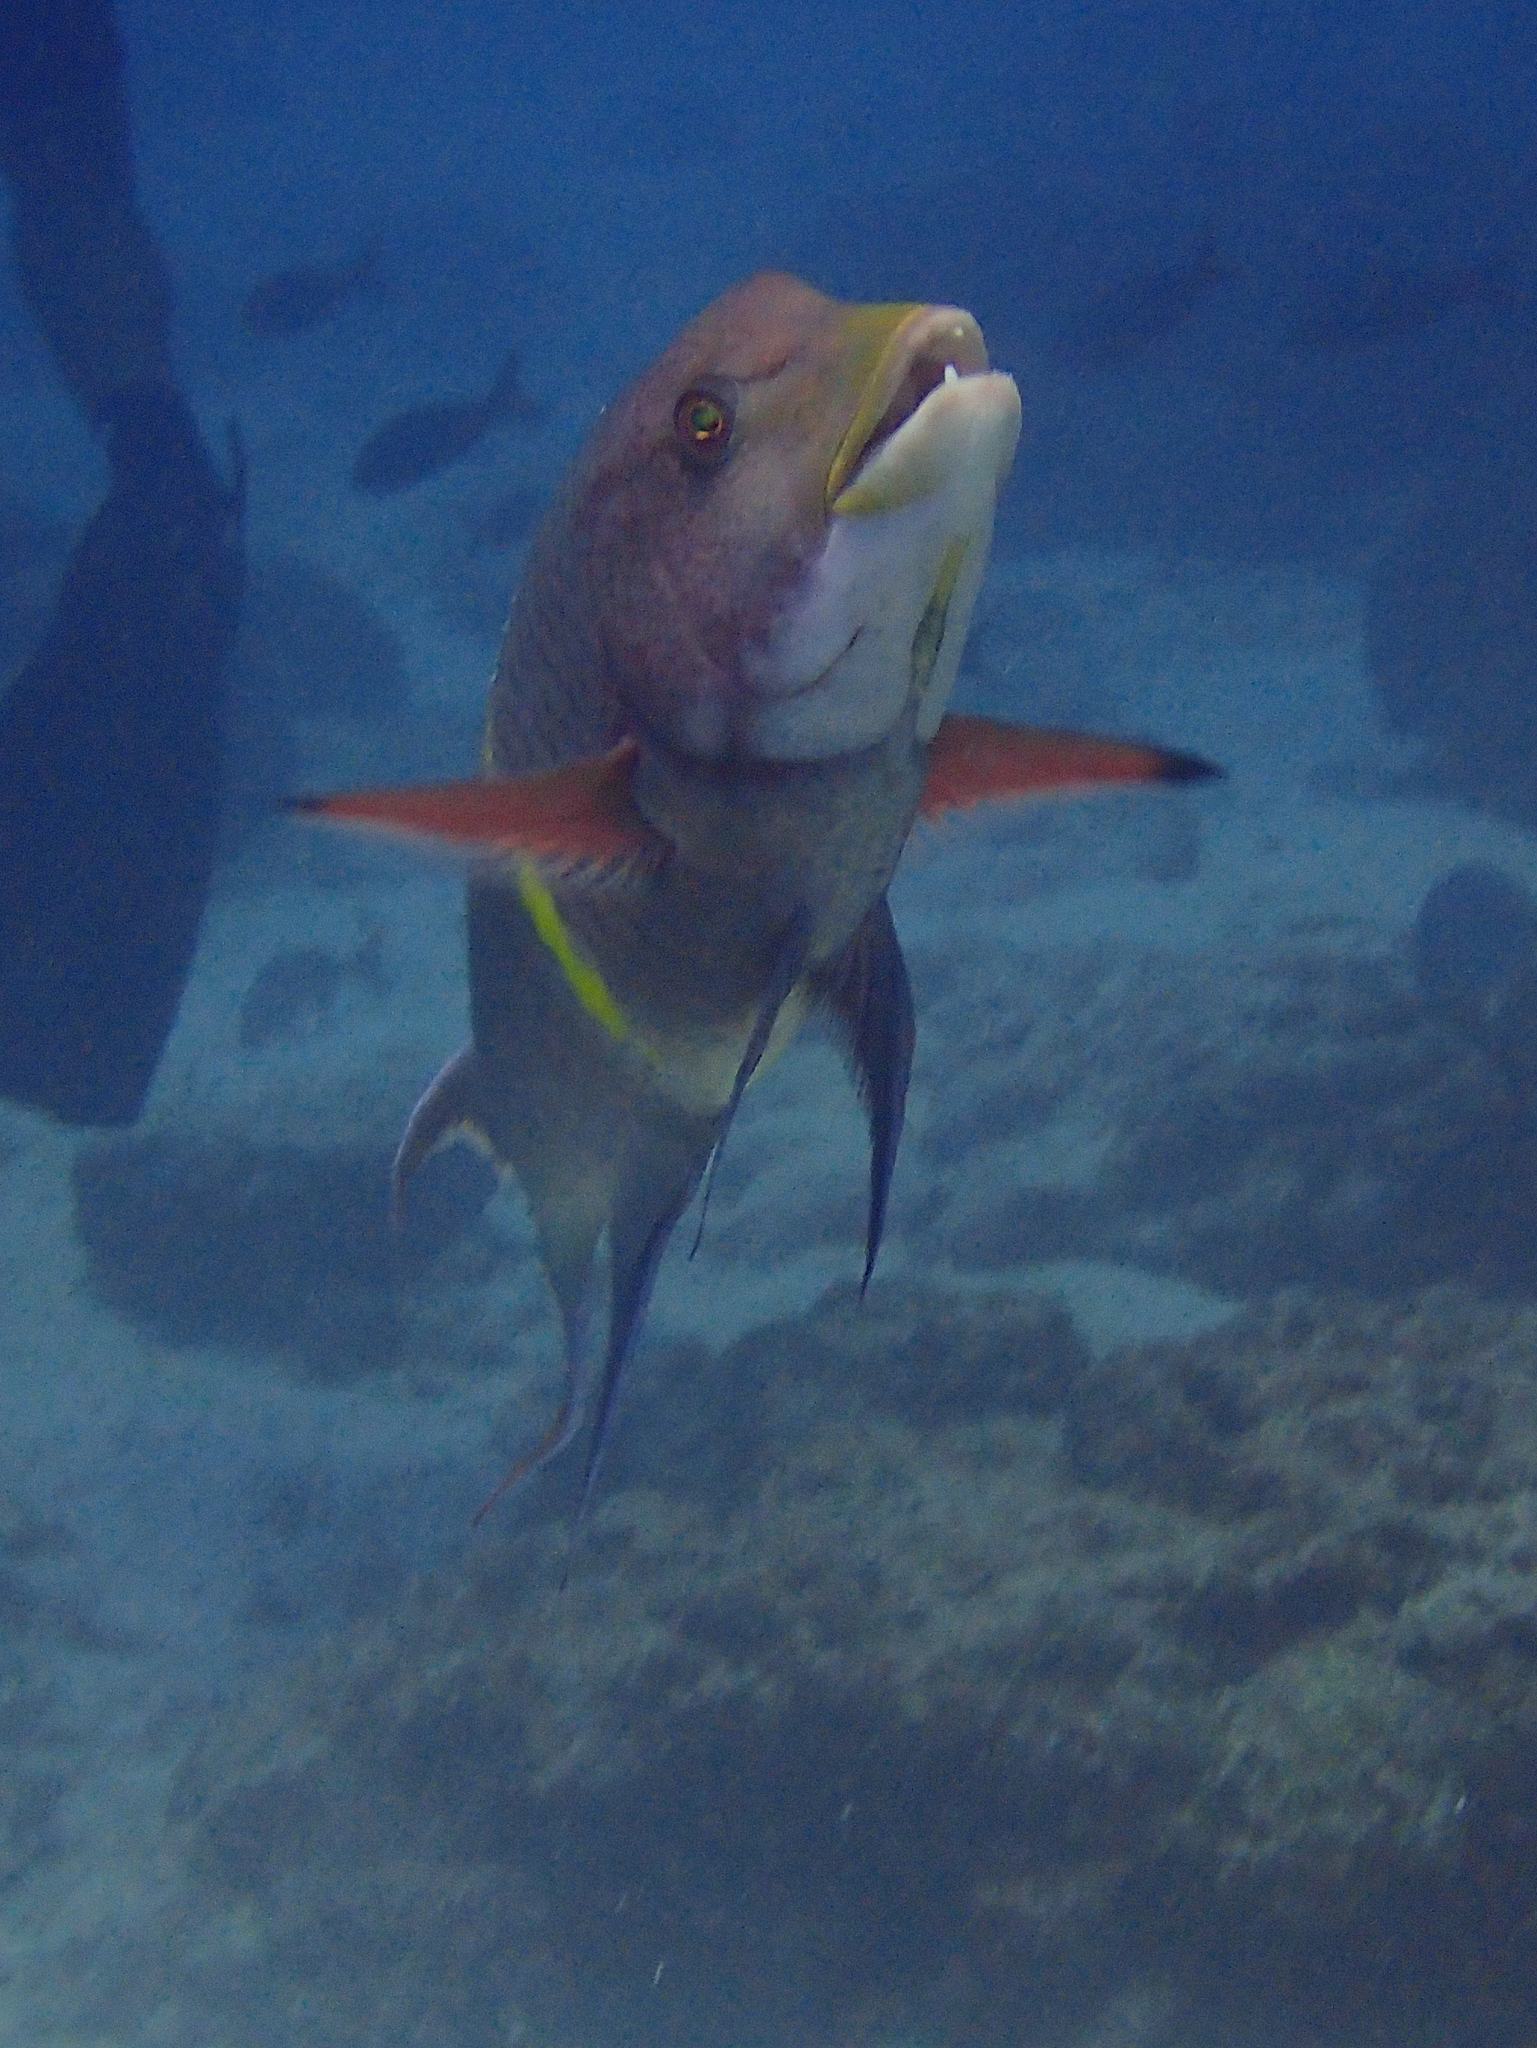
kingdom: Animalia
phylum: Chordata
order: Perciformes
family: Labridae
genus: Bodianus
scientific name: Bodianus diplotaenia
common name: Mexican hogfish
